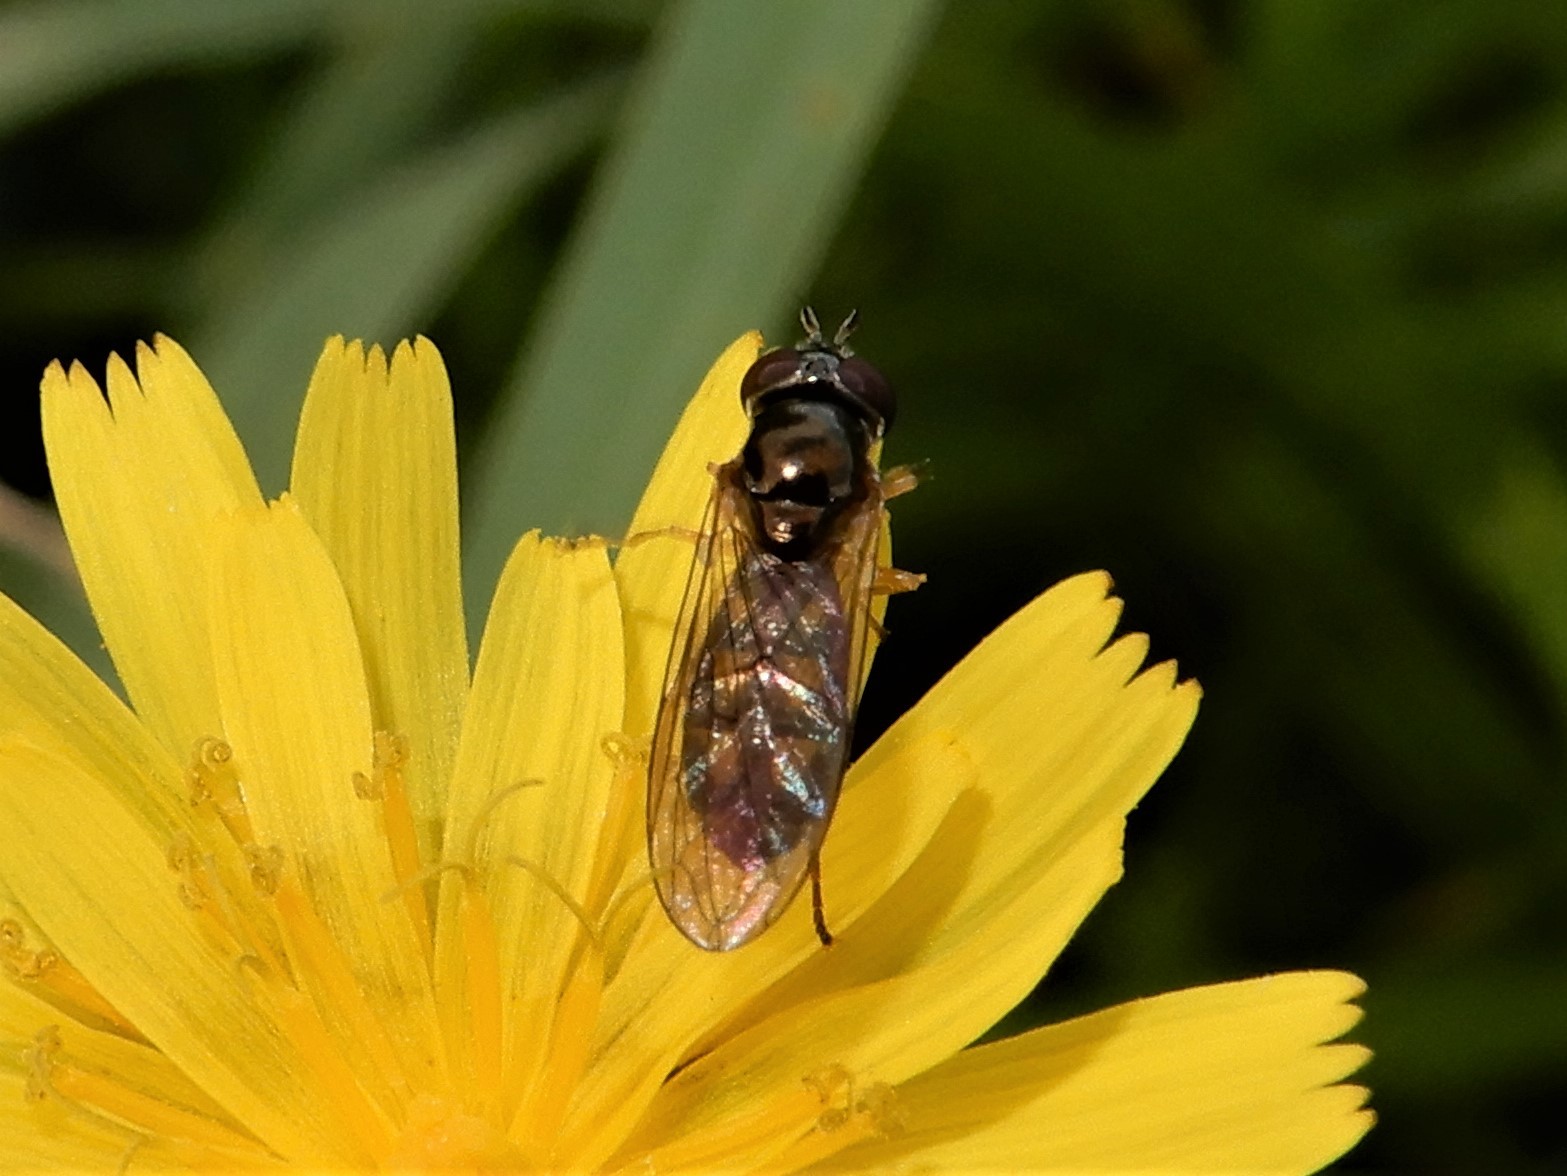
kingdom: Animalia
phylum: Arthropoda
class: Insecta
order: Diptera
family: Syrphidae
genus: Melanostoma
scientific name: Melanostoma fasciatum
